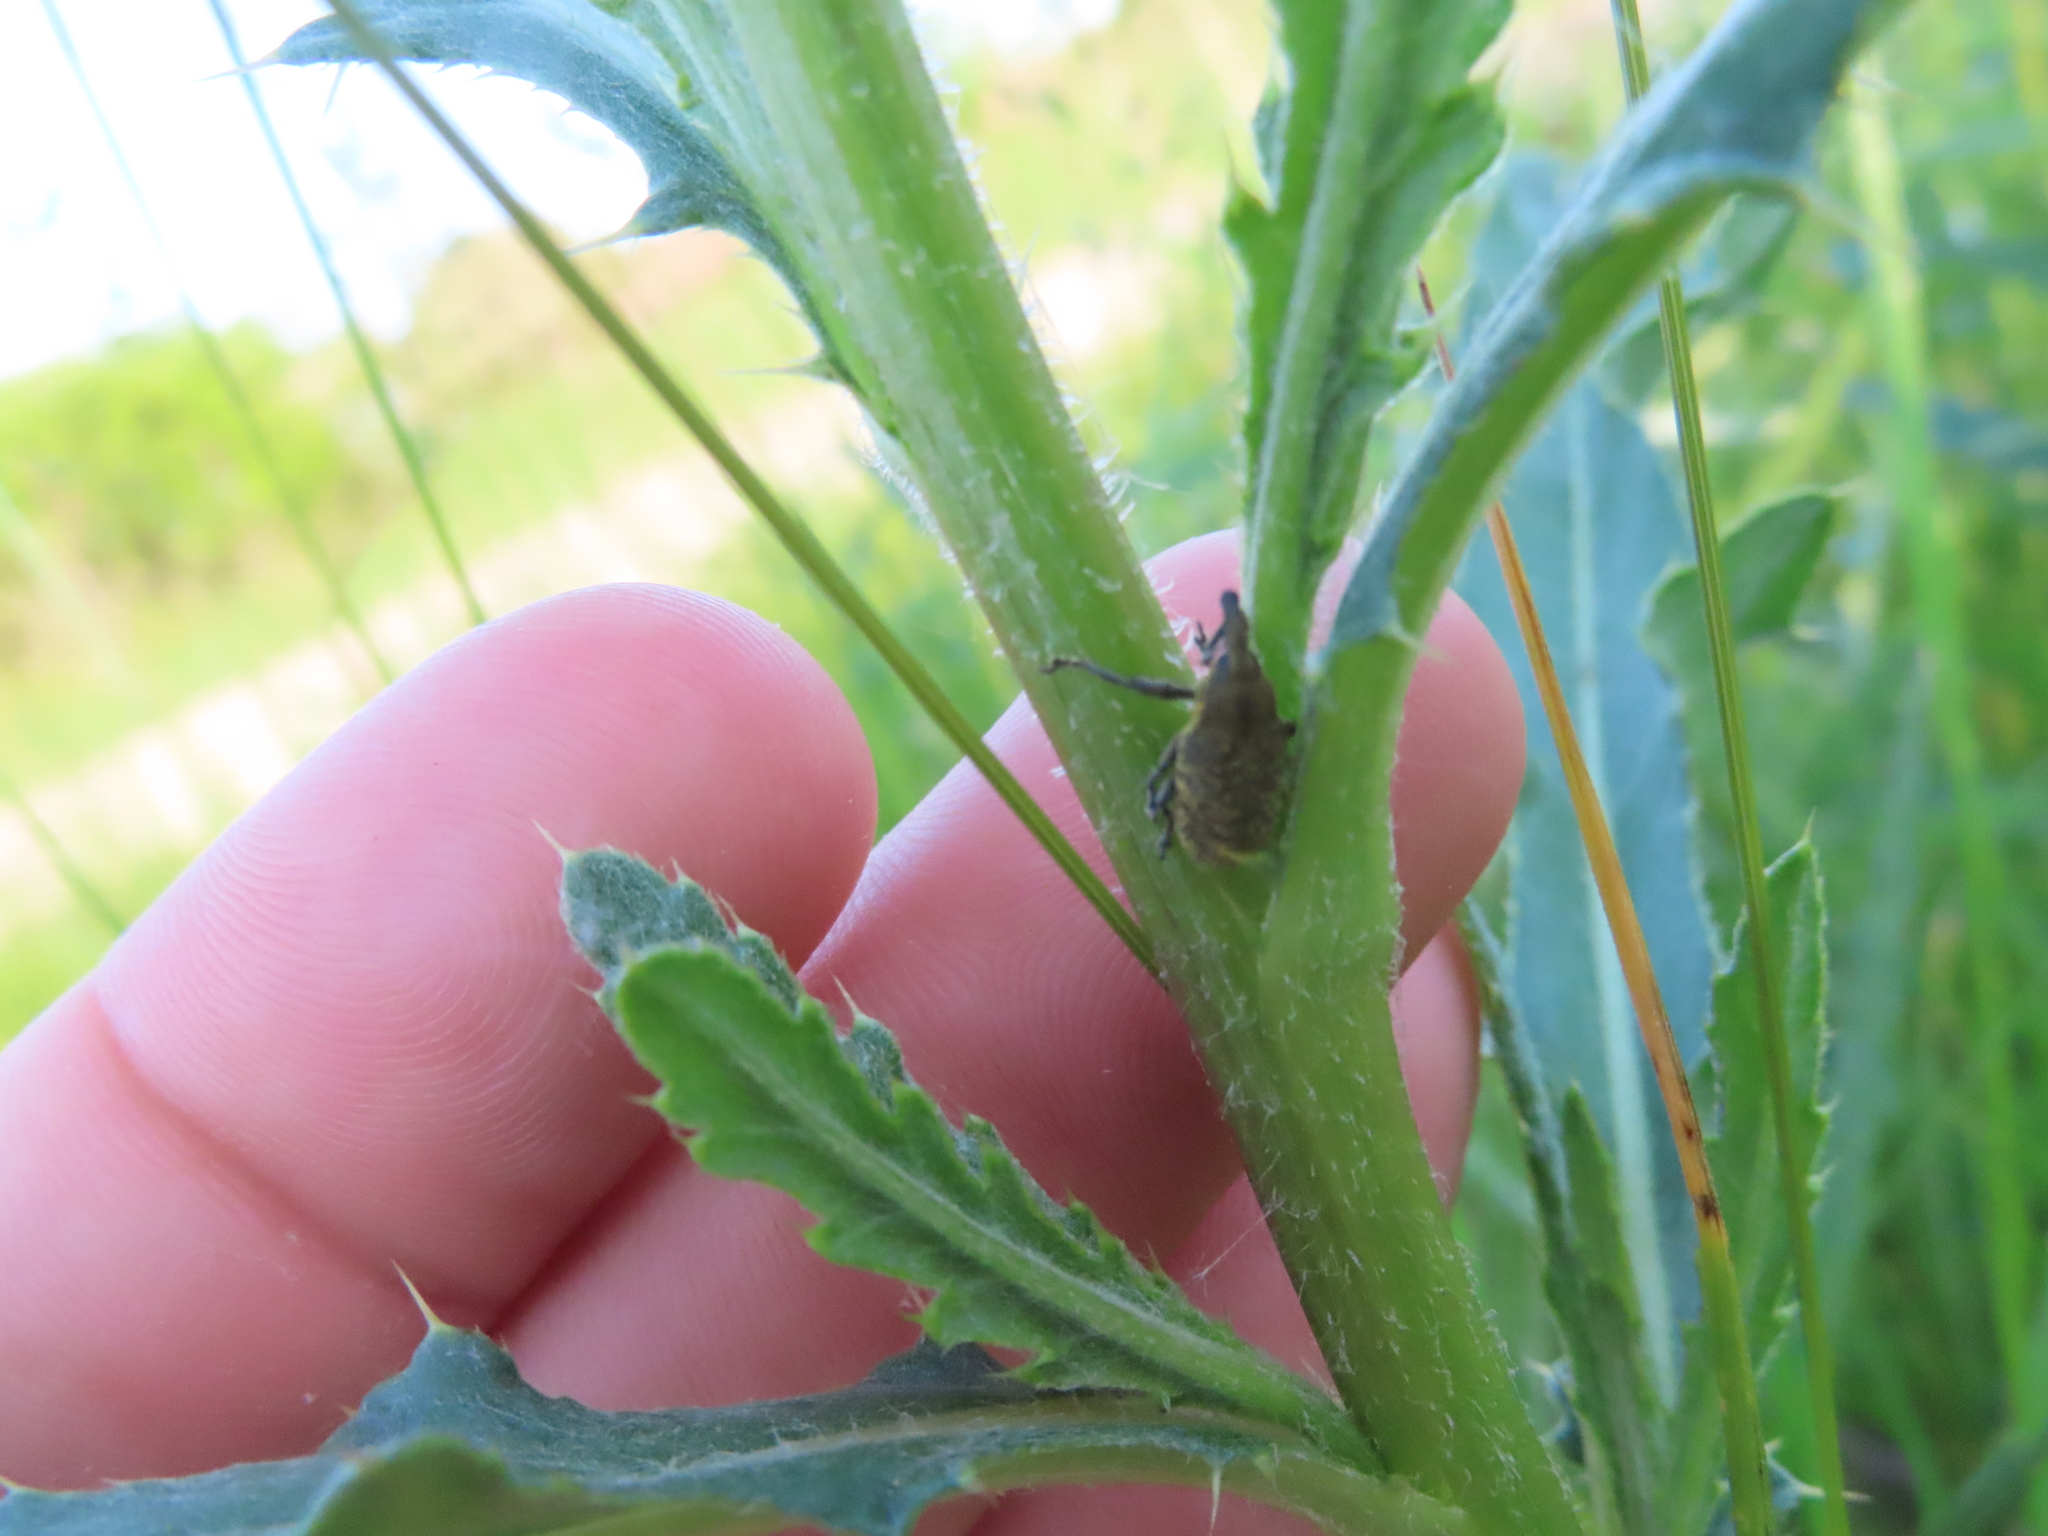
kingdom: Animalia
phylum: Arthropoda
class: Insecta
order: Coleoptera
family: Curculionidae
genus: Larinus
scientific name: Larinus carlinae
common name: Weevil
